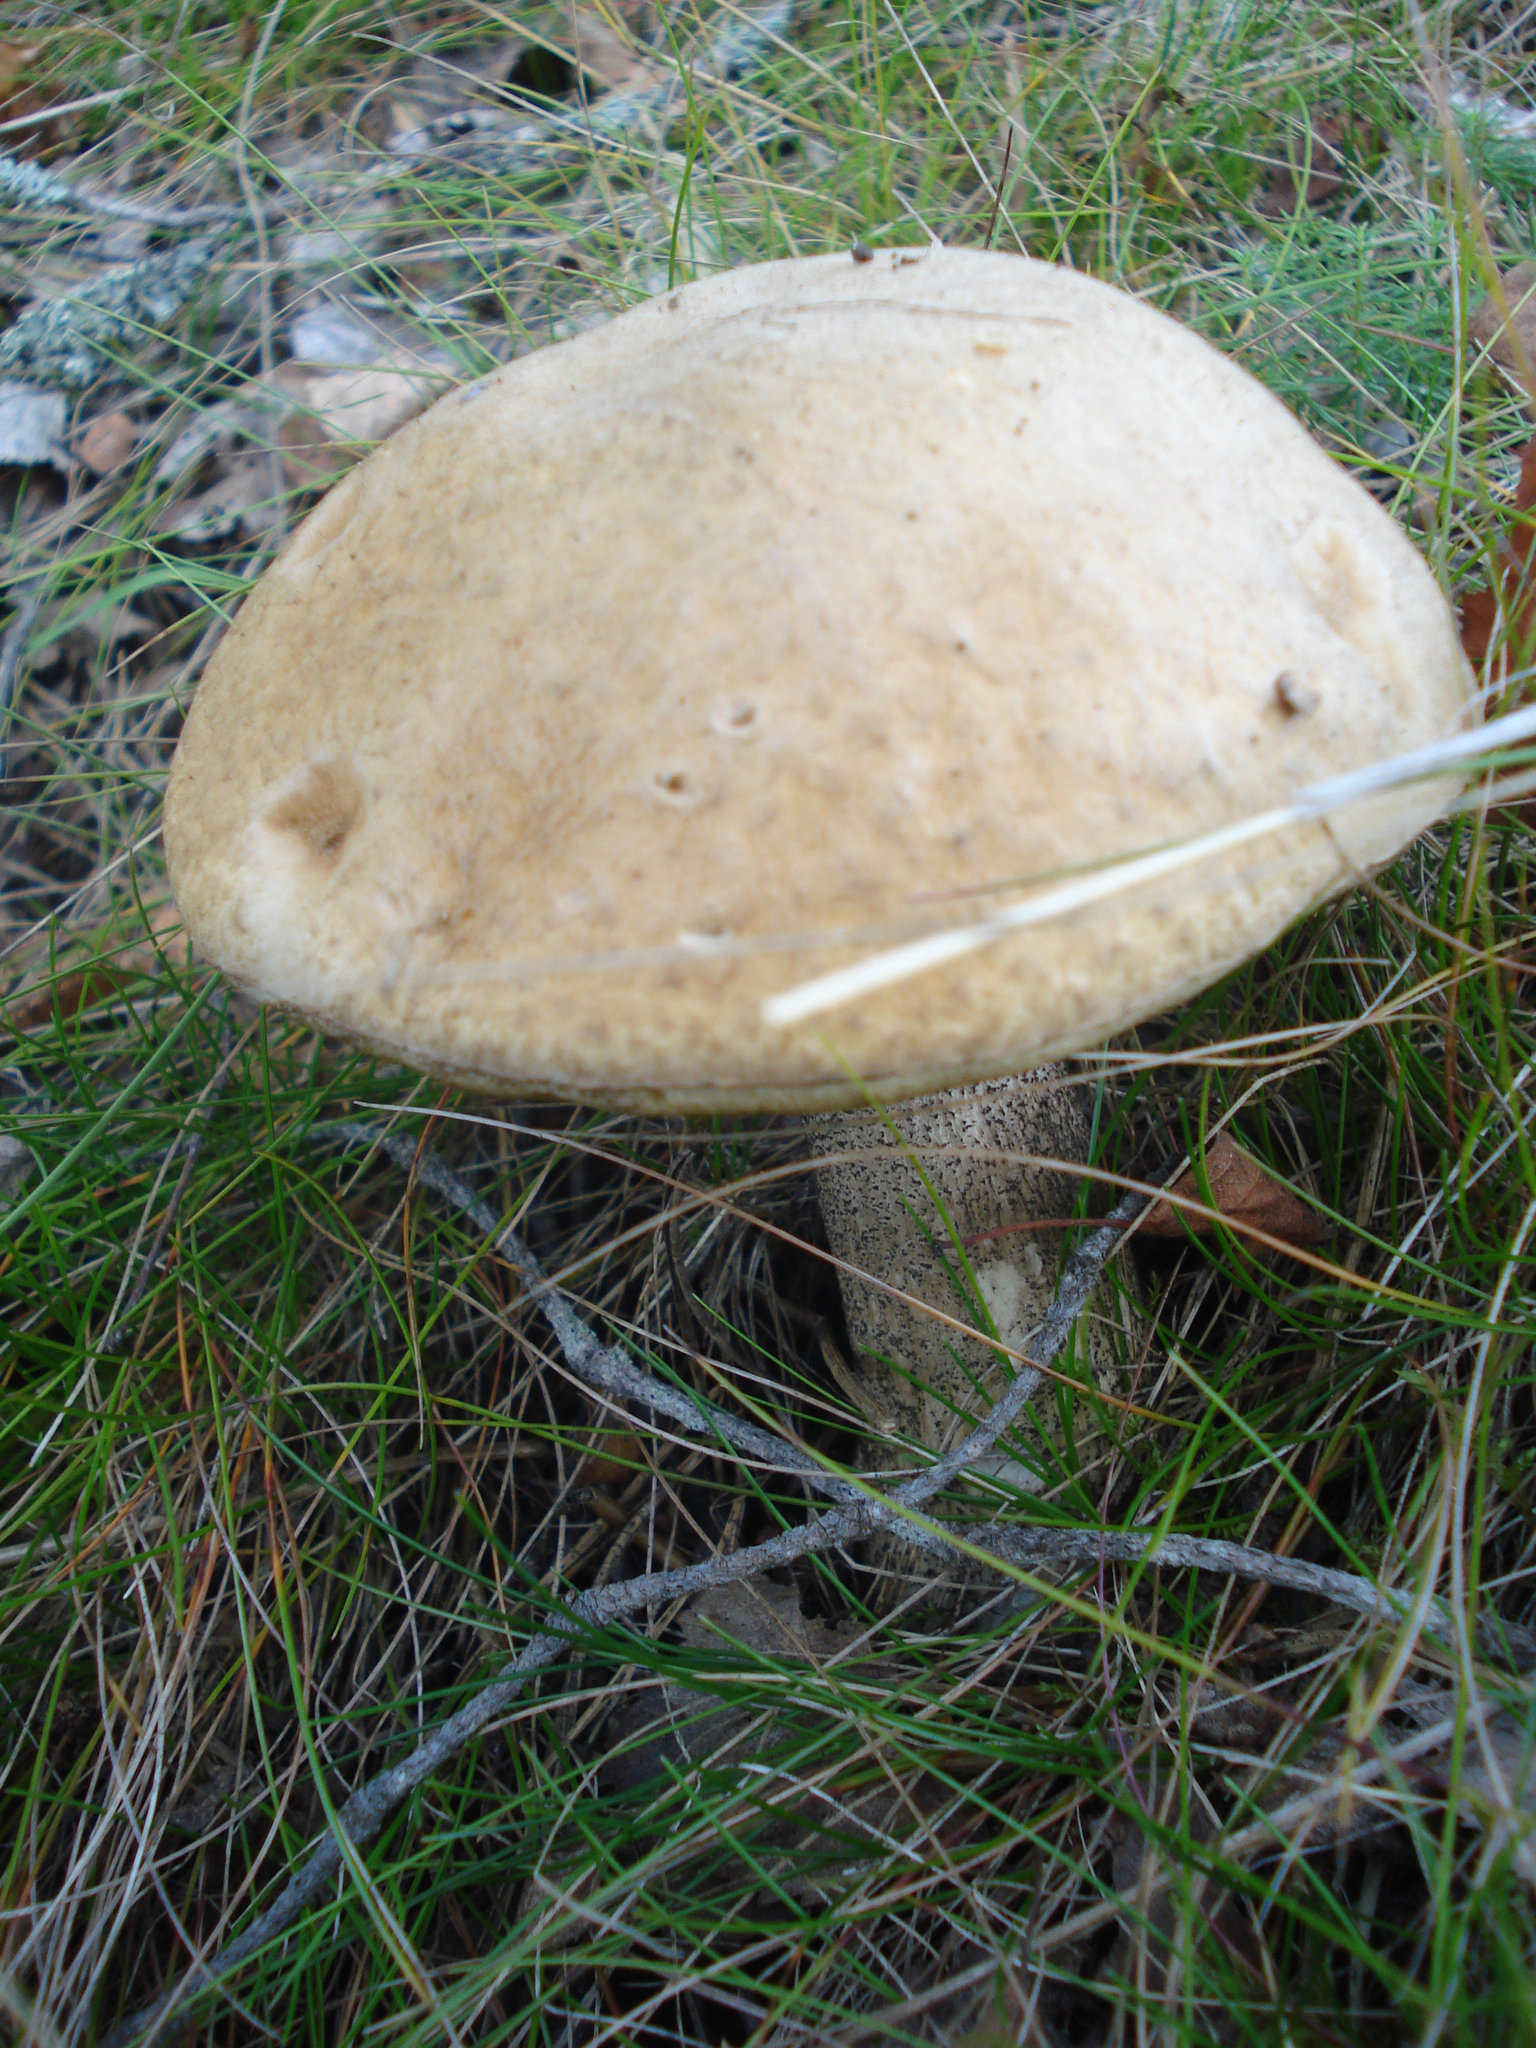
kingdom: Fungi
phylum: Basidiomycota
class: Agaricomycetes
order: Boletales
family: Boletaceae
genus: Leccinum
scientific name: Leccinum scabrum
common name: Blushing bolete
